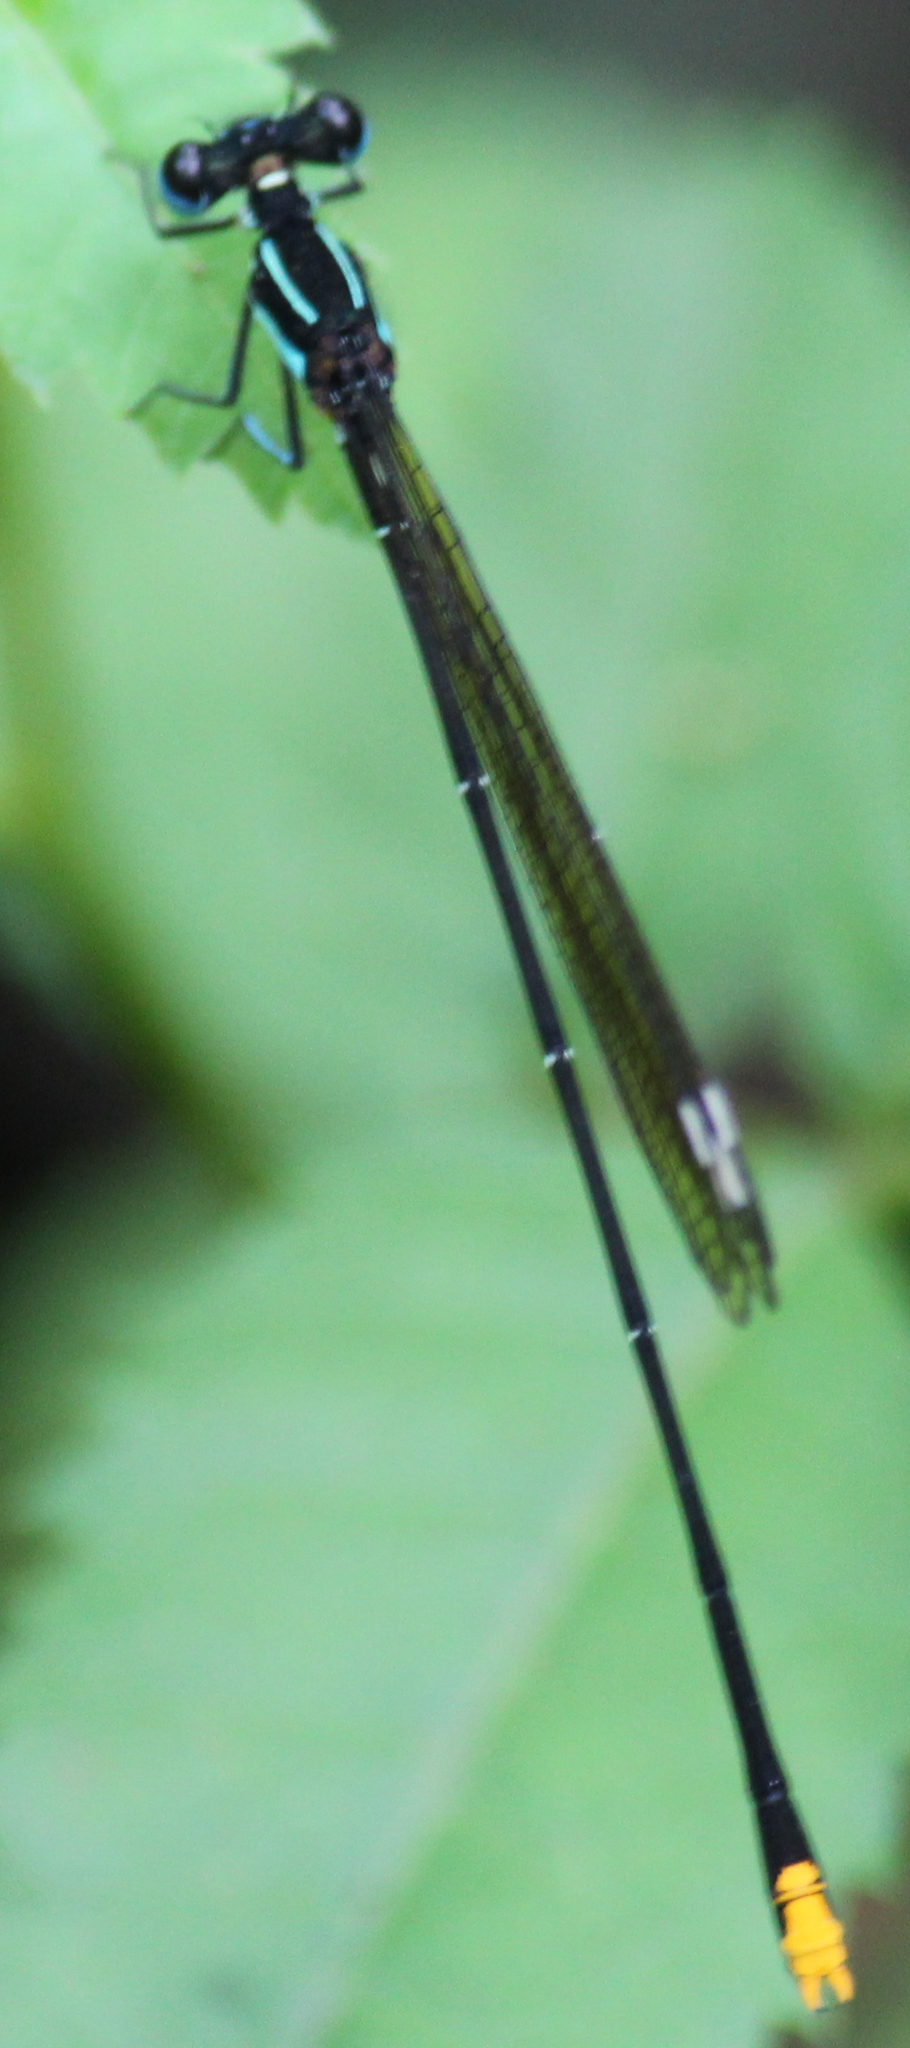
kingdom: Animalia
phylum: Arthropoda
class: Insecta
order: Odonata
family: Platycnemididae
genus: Allocnemis
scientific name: Allocnemis leucosticta
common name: Goldtail
